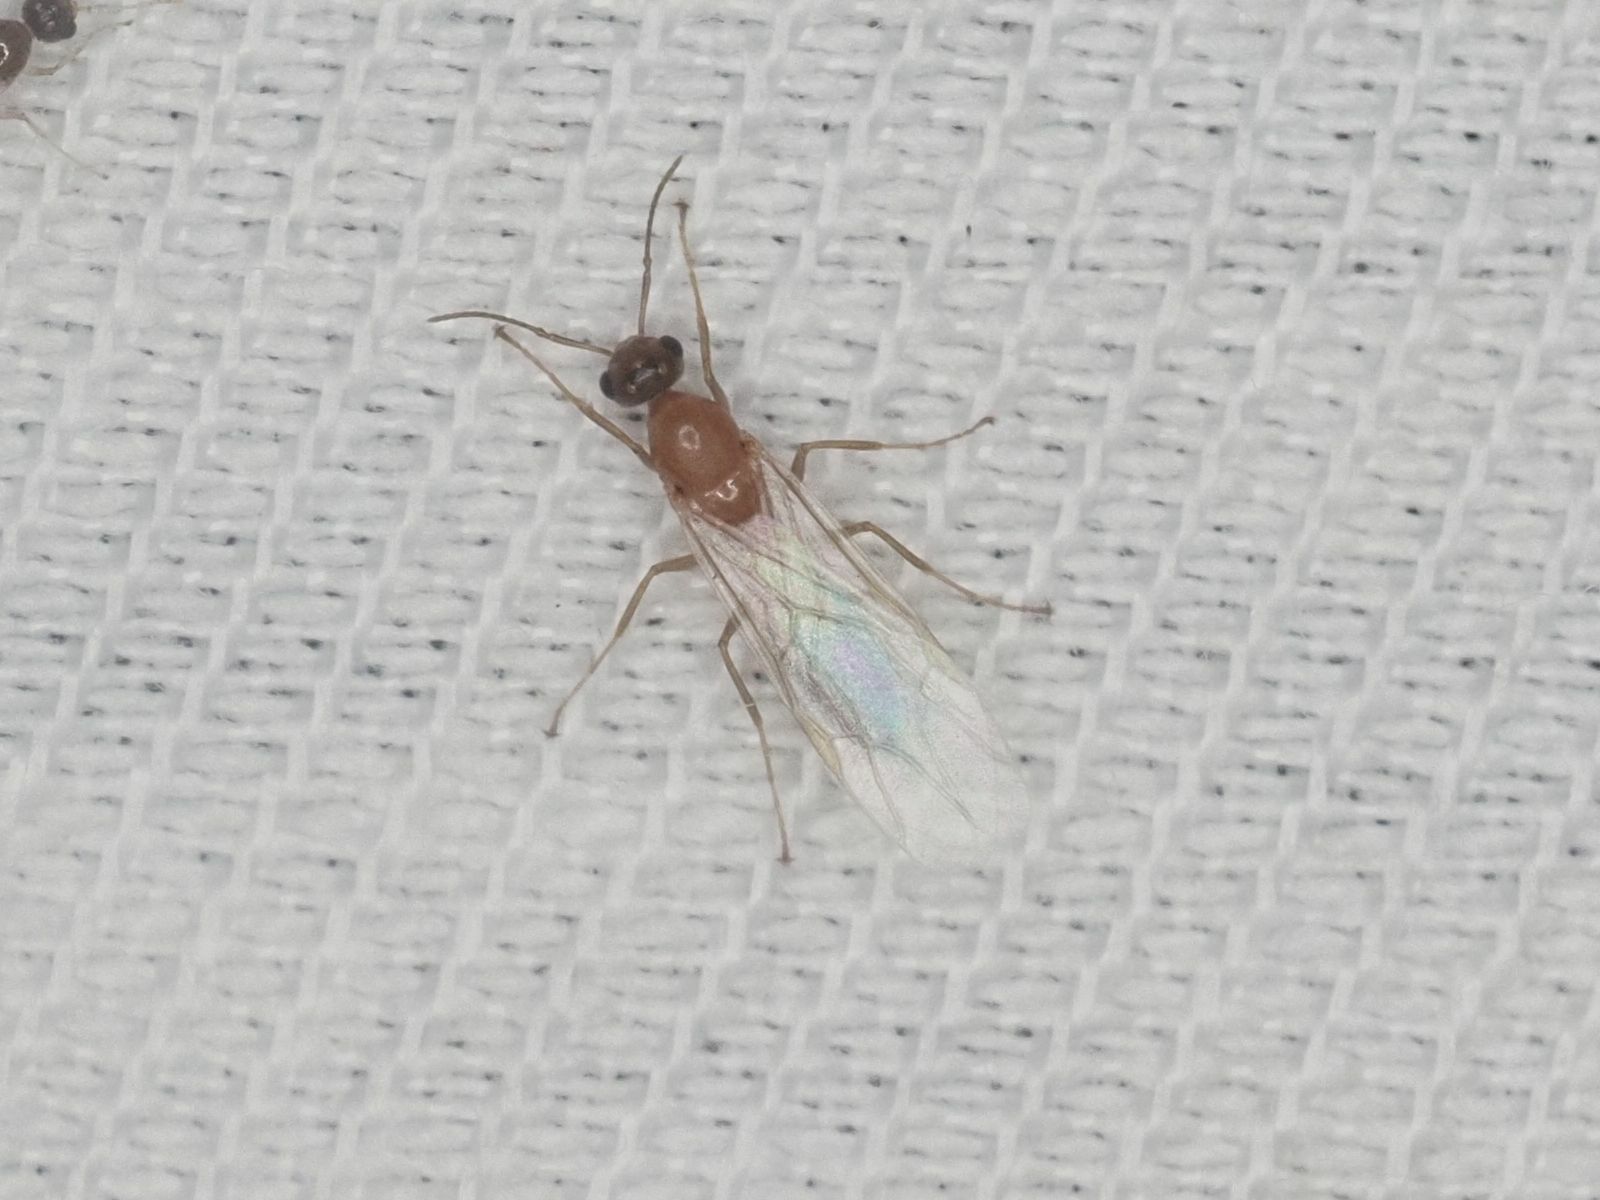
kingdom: Animalia
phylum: Arthropoda
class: Insecta
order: Hymenoptera
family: Formicidae
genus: Camponotus
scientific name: Camponotus truncatus
